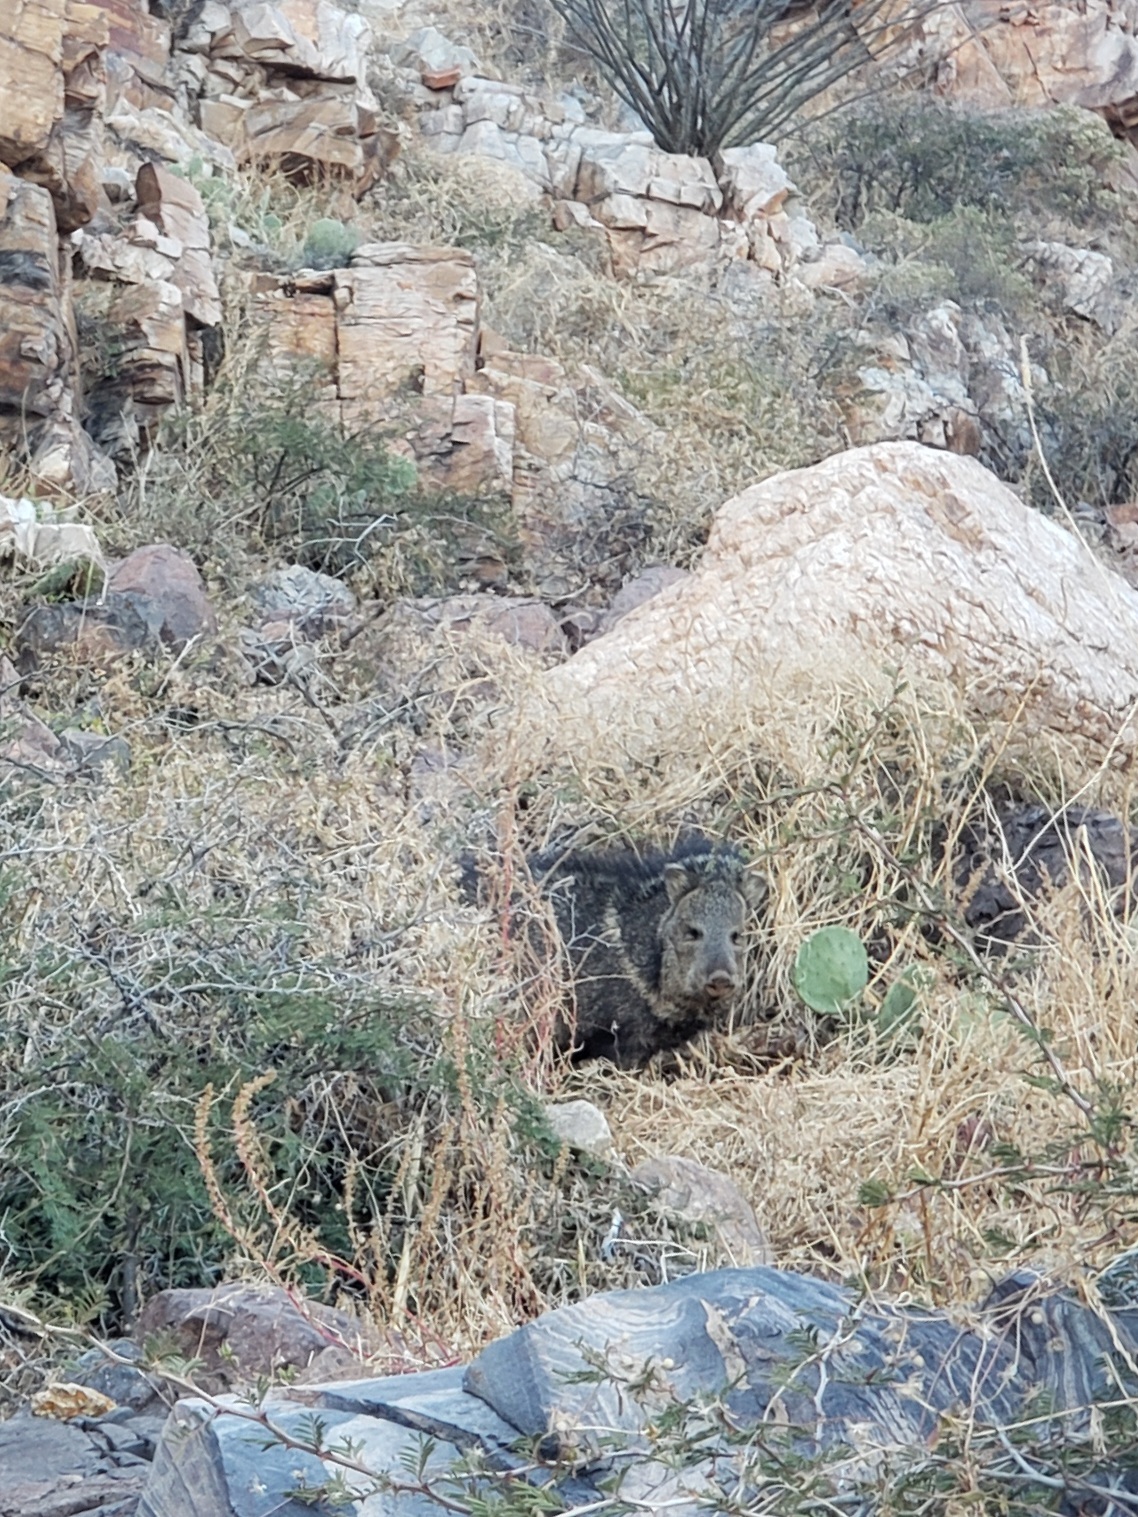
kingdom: Animalia
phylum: Chordata
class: Mammalia
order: Artiodactyla
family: Tayassuidae
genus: Pecari
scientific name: Pecari tajacu
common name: Collared peccary
